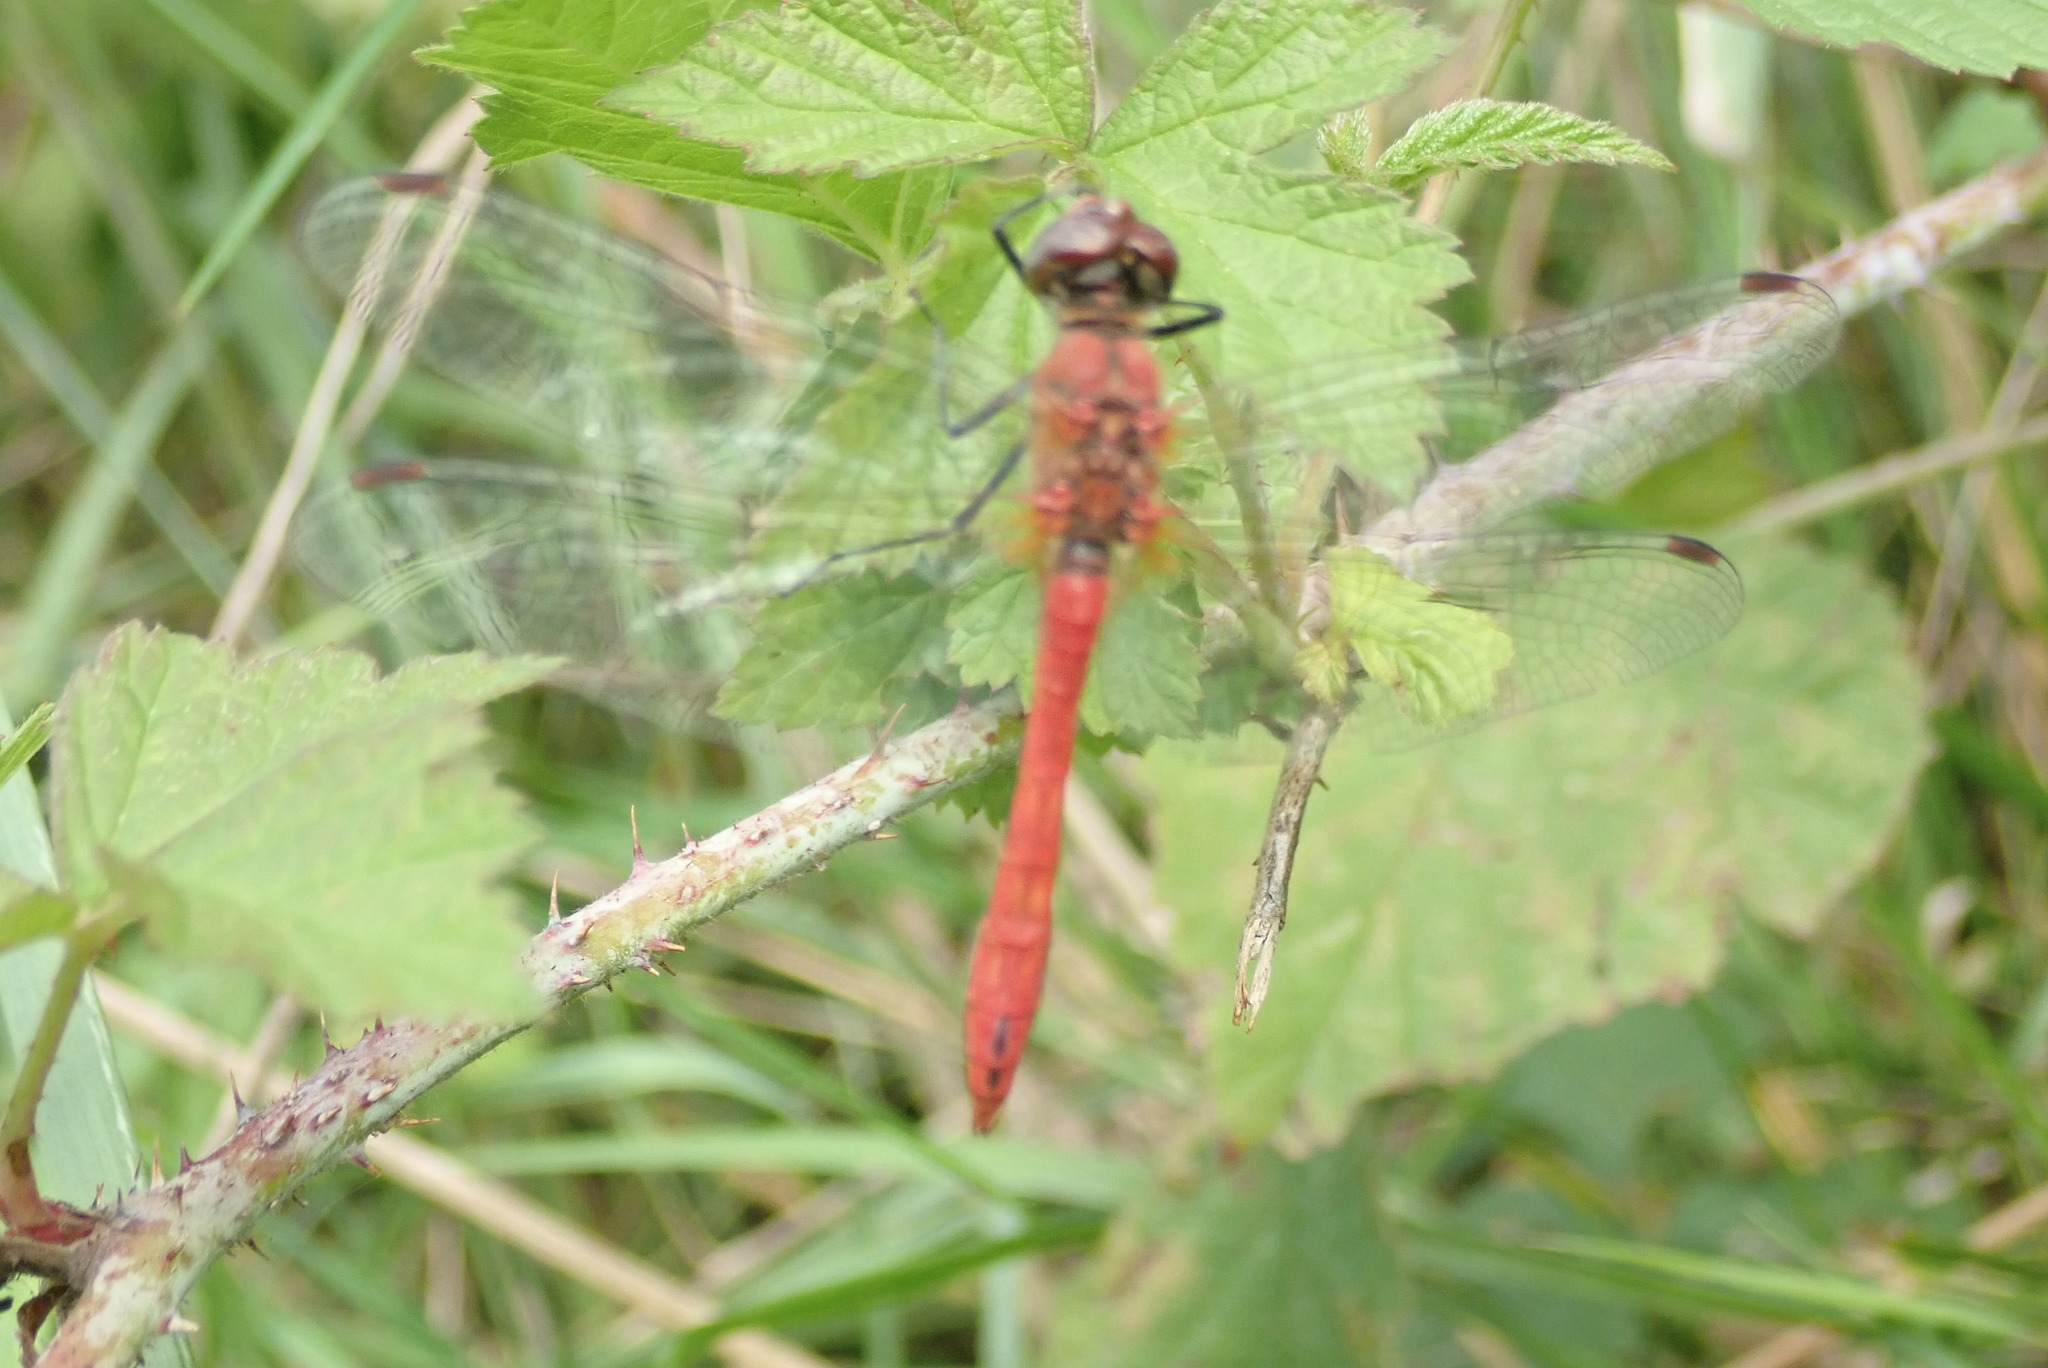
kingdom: Animalia
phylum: Arthropoda
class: Insecta
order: Odonata
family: Libellulidae
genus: Sympetrum
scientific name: Sympetrum sanguineum
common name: Ruddy darter
